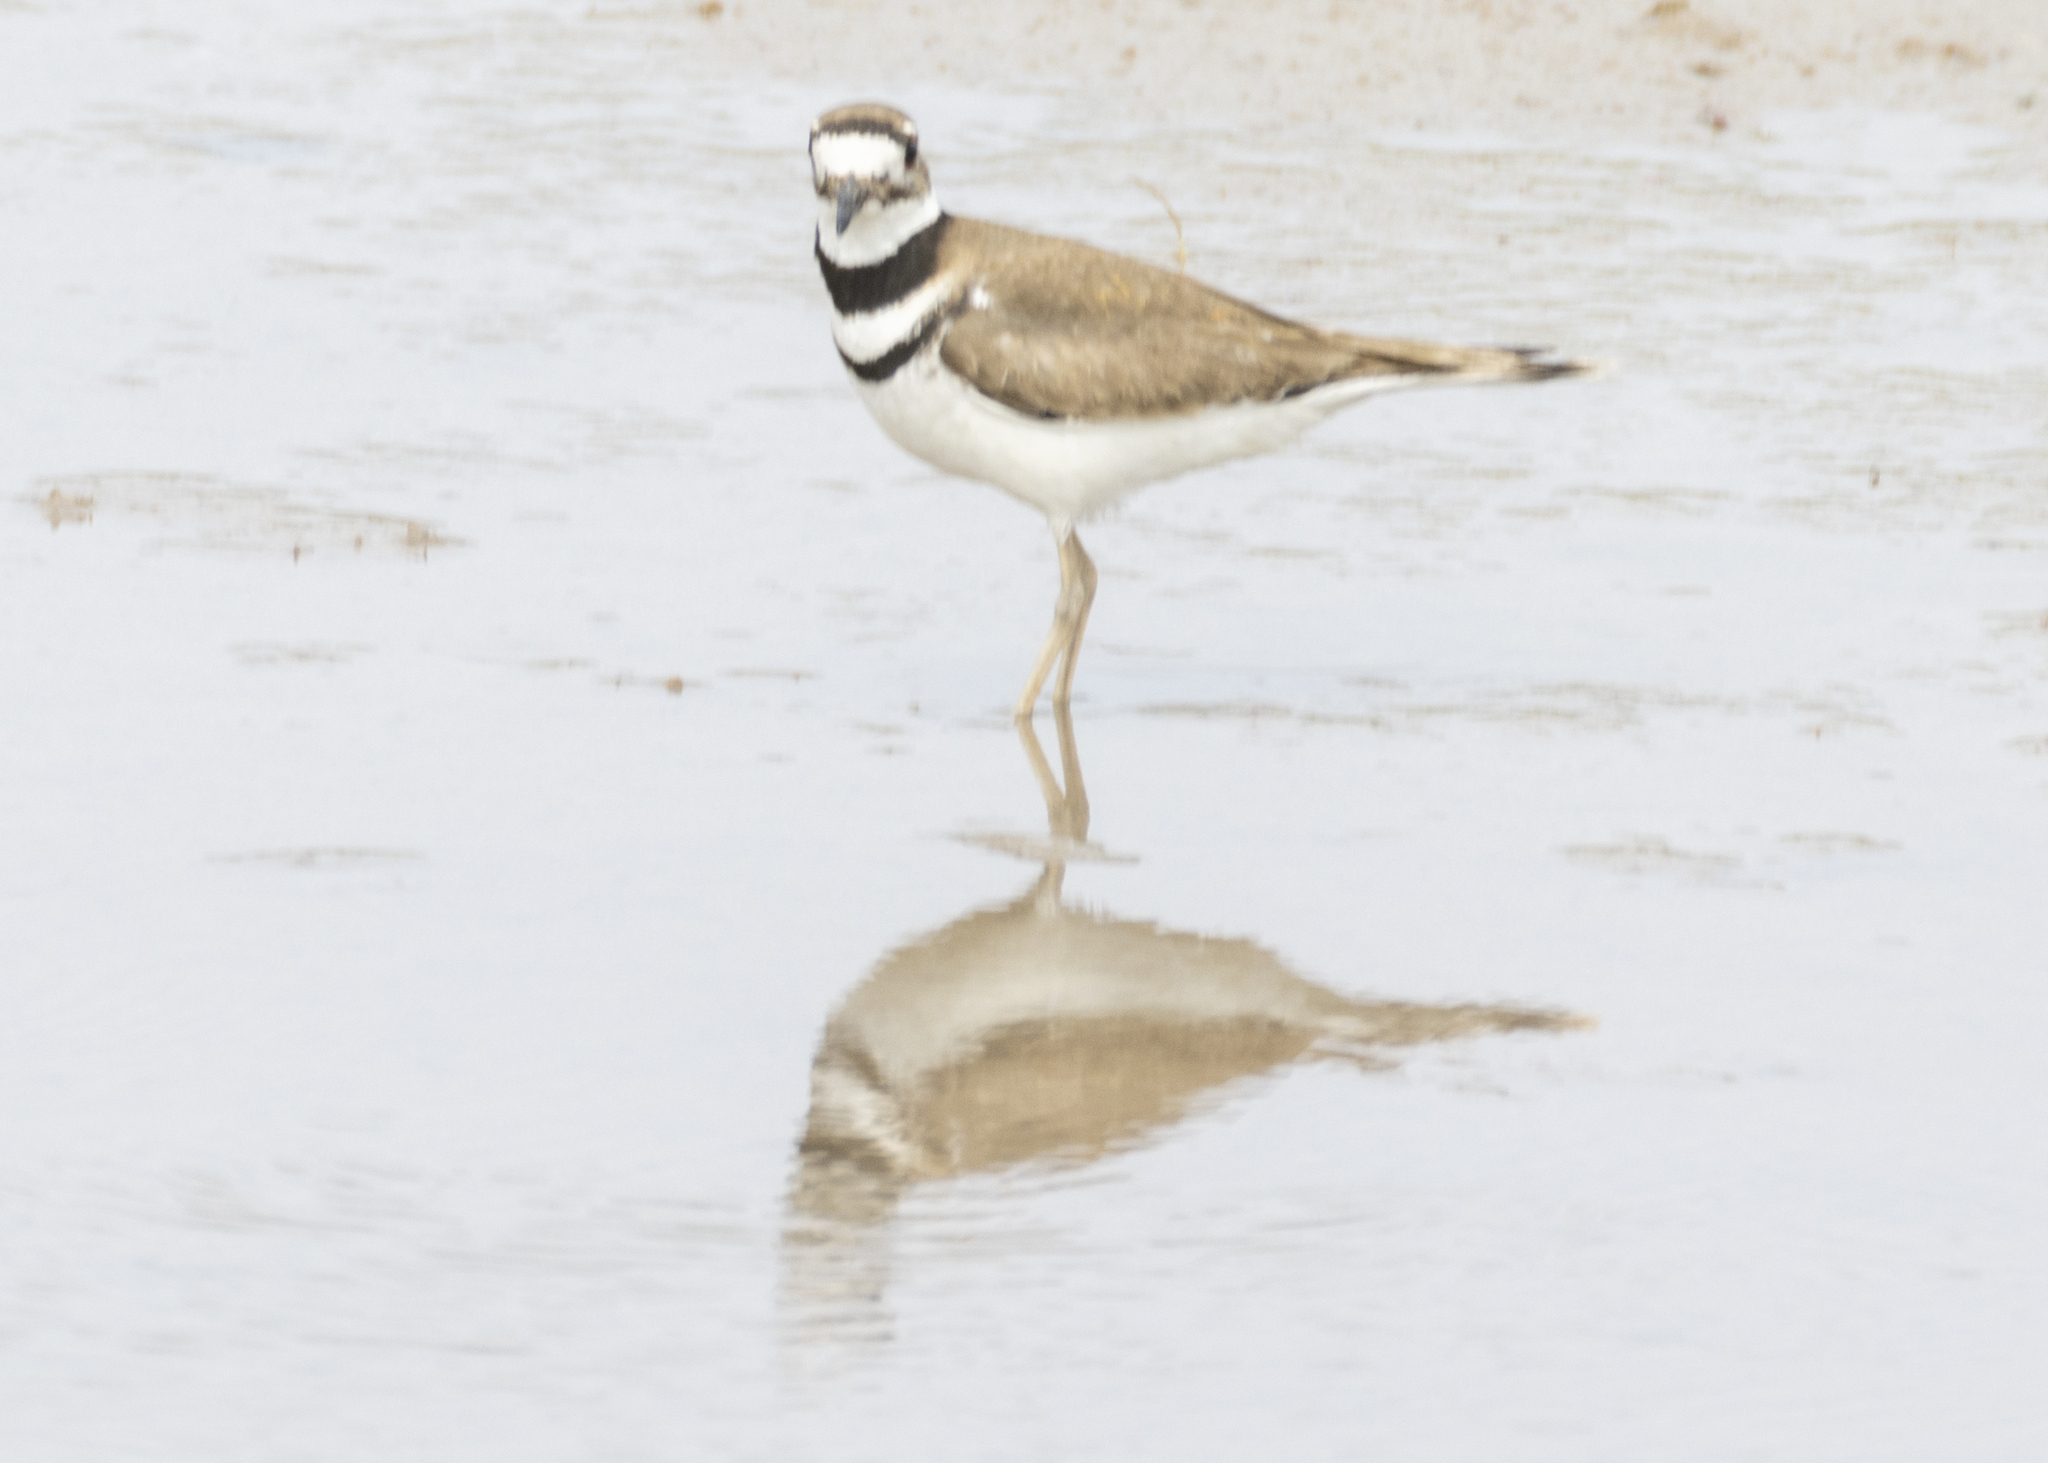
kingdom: Animalia
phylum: Chordata
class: Aves
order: Charadriiformes
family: Charadriidae
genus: Charadrius
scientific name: Charadrius vociferus
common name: Killdeer
